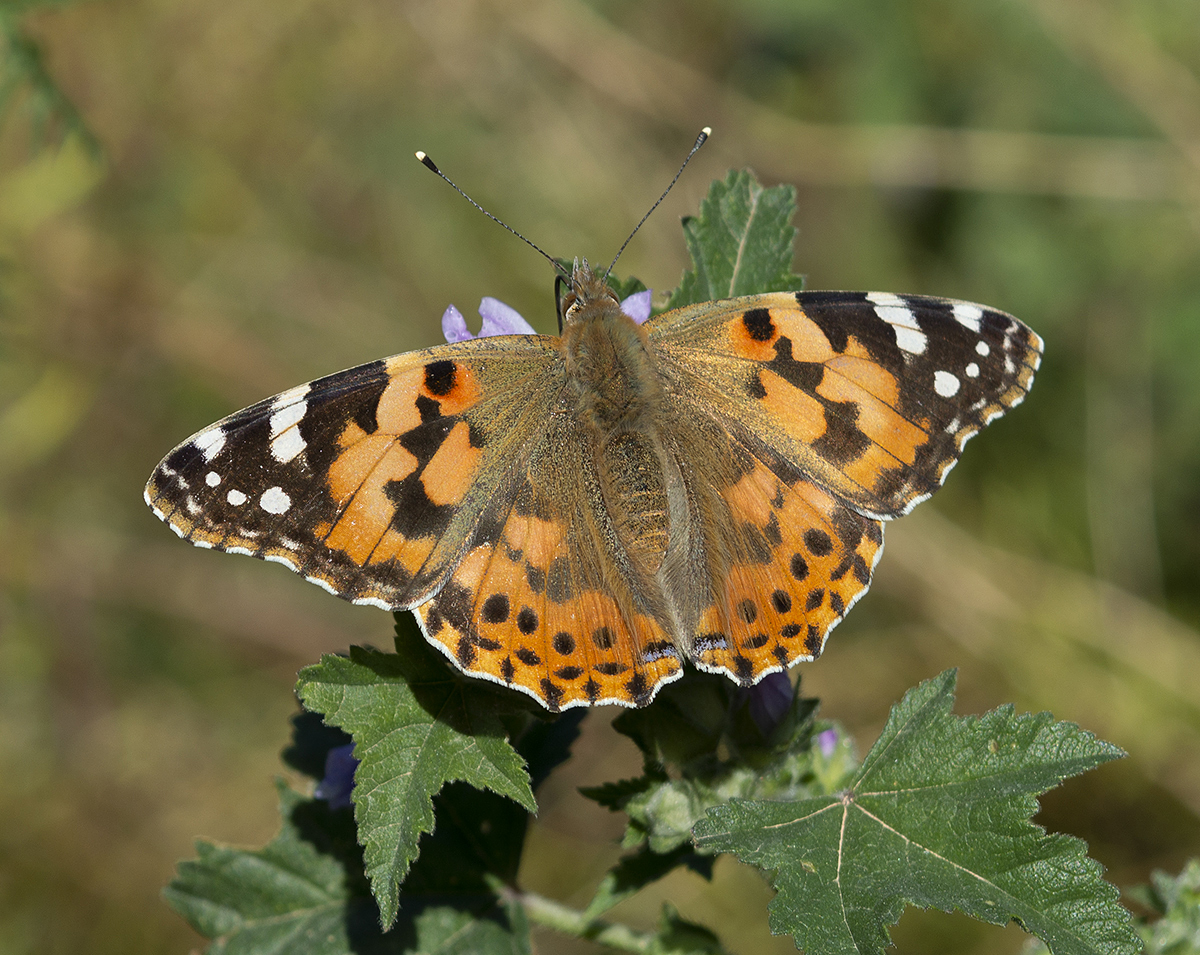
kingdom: Animalia
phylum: Arthropoda
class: Insecta
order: Lepidoptera
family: Nymphalidae
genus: Vanessa
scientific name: Vanessa cardui
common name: Painted lady
